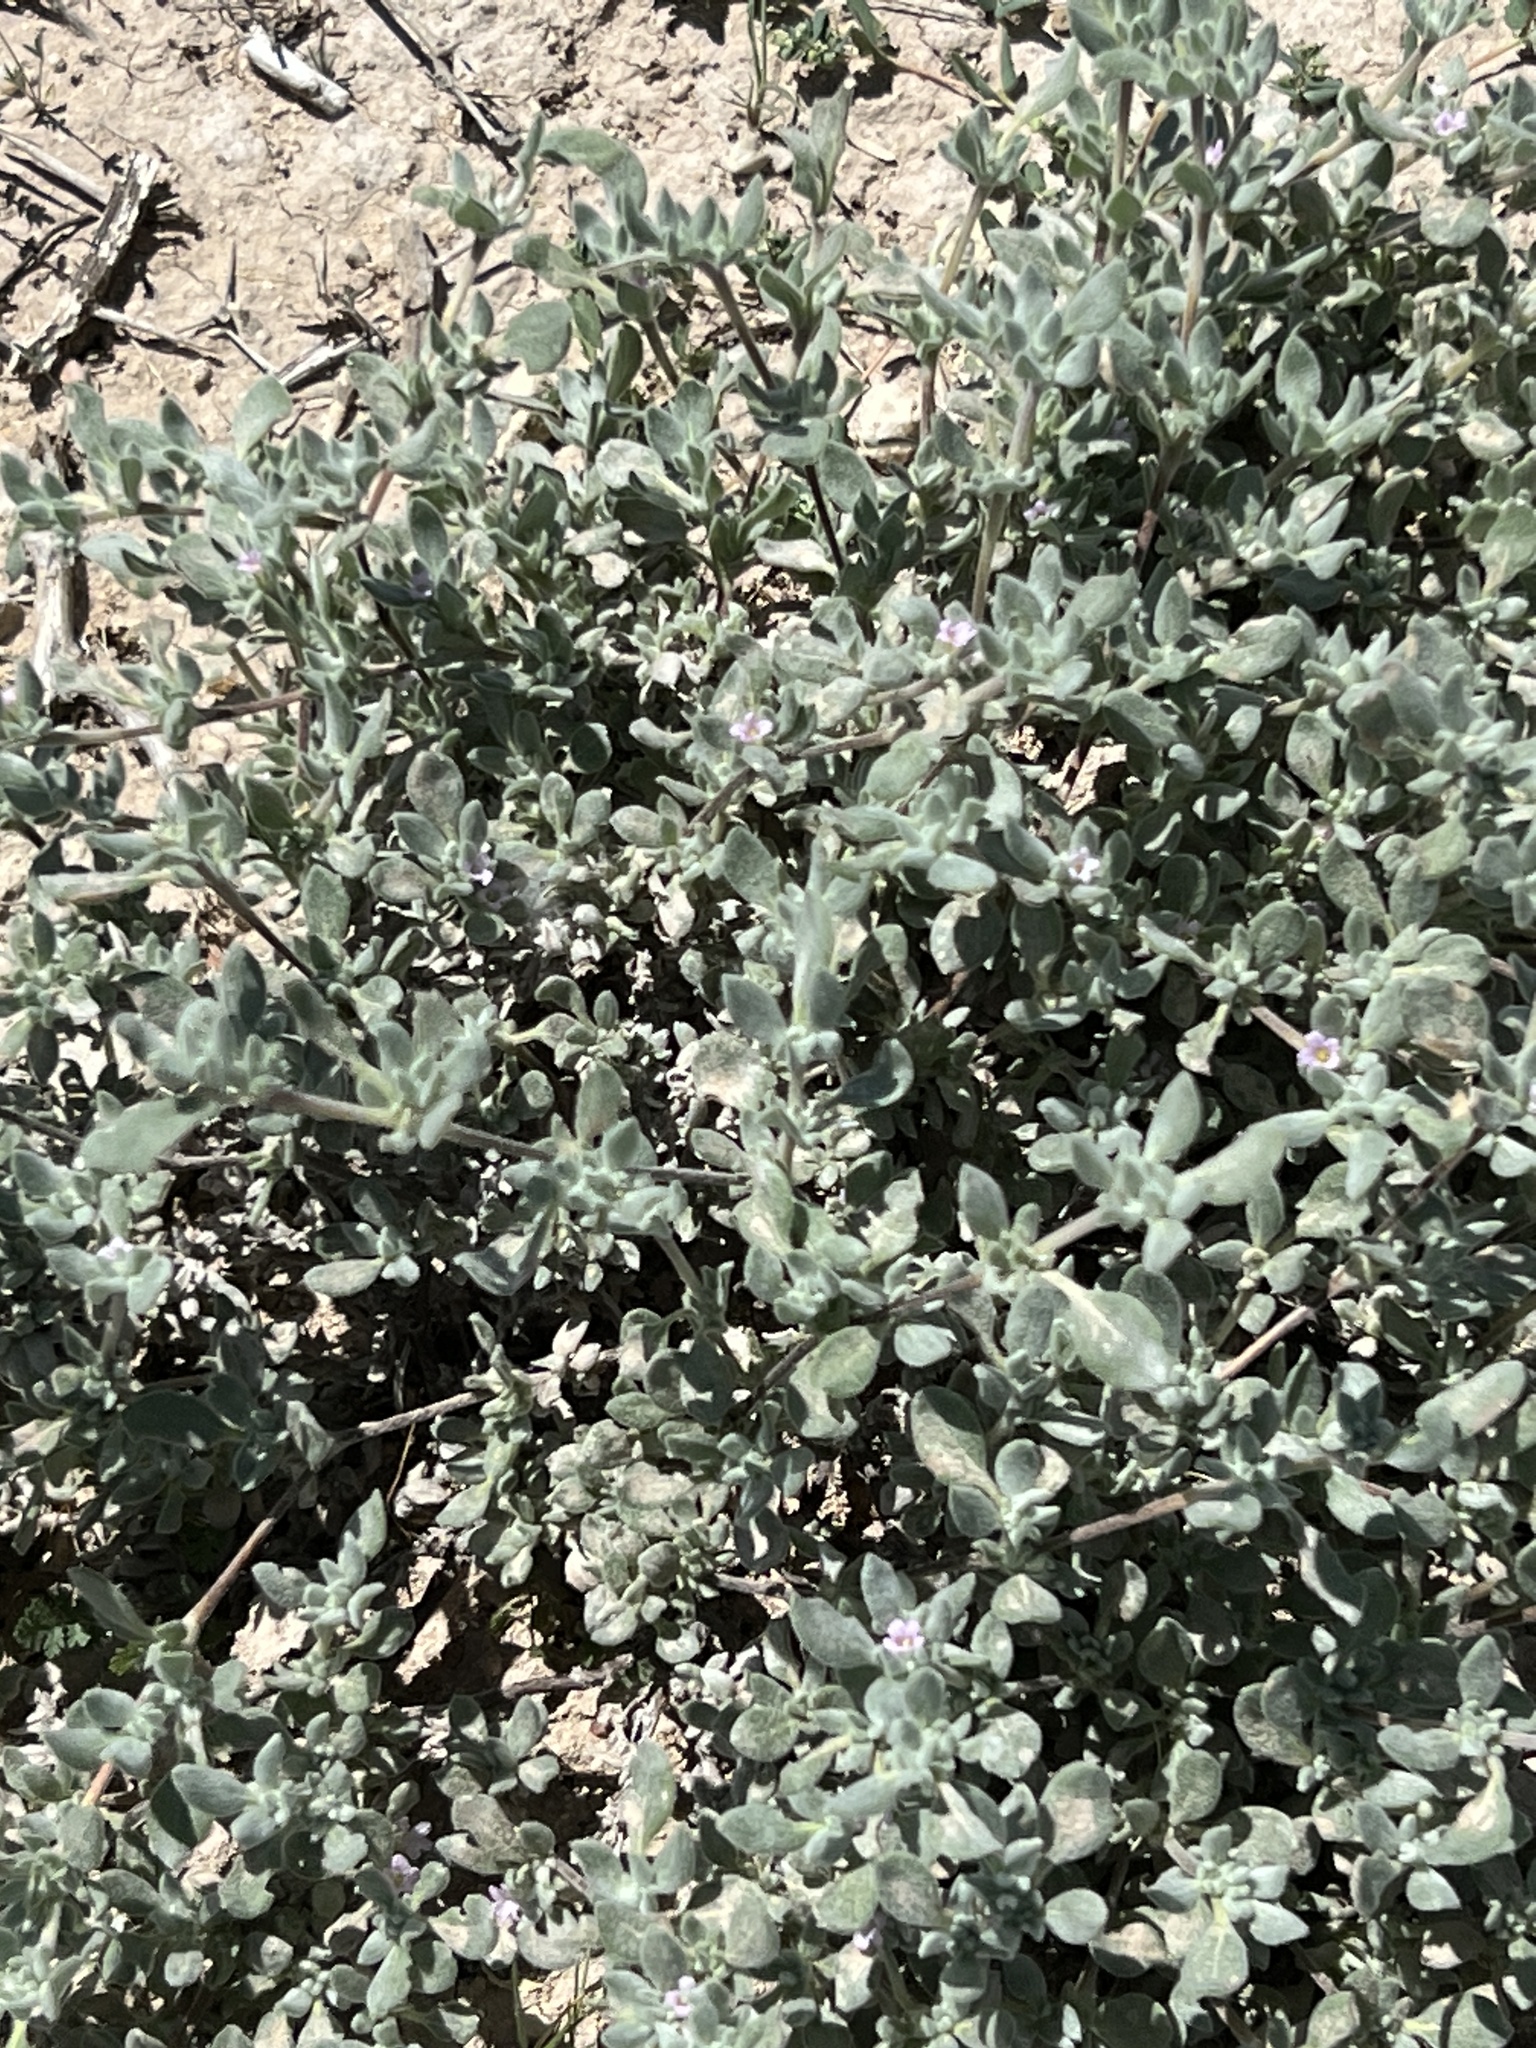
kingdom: Plantae
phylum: Tracheophyta
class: Magnoliopsida
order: Boraginales
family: Ehretiaceae
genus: Tiquilia
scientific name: Tiquilia canescens
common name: Hairy tiquilia
